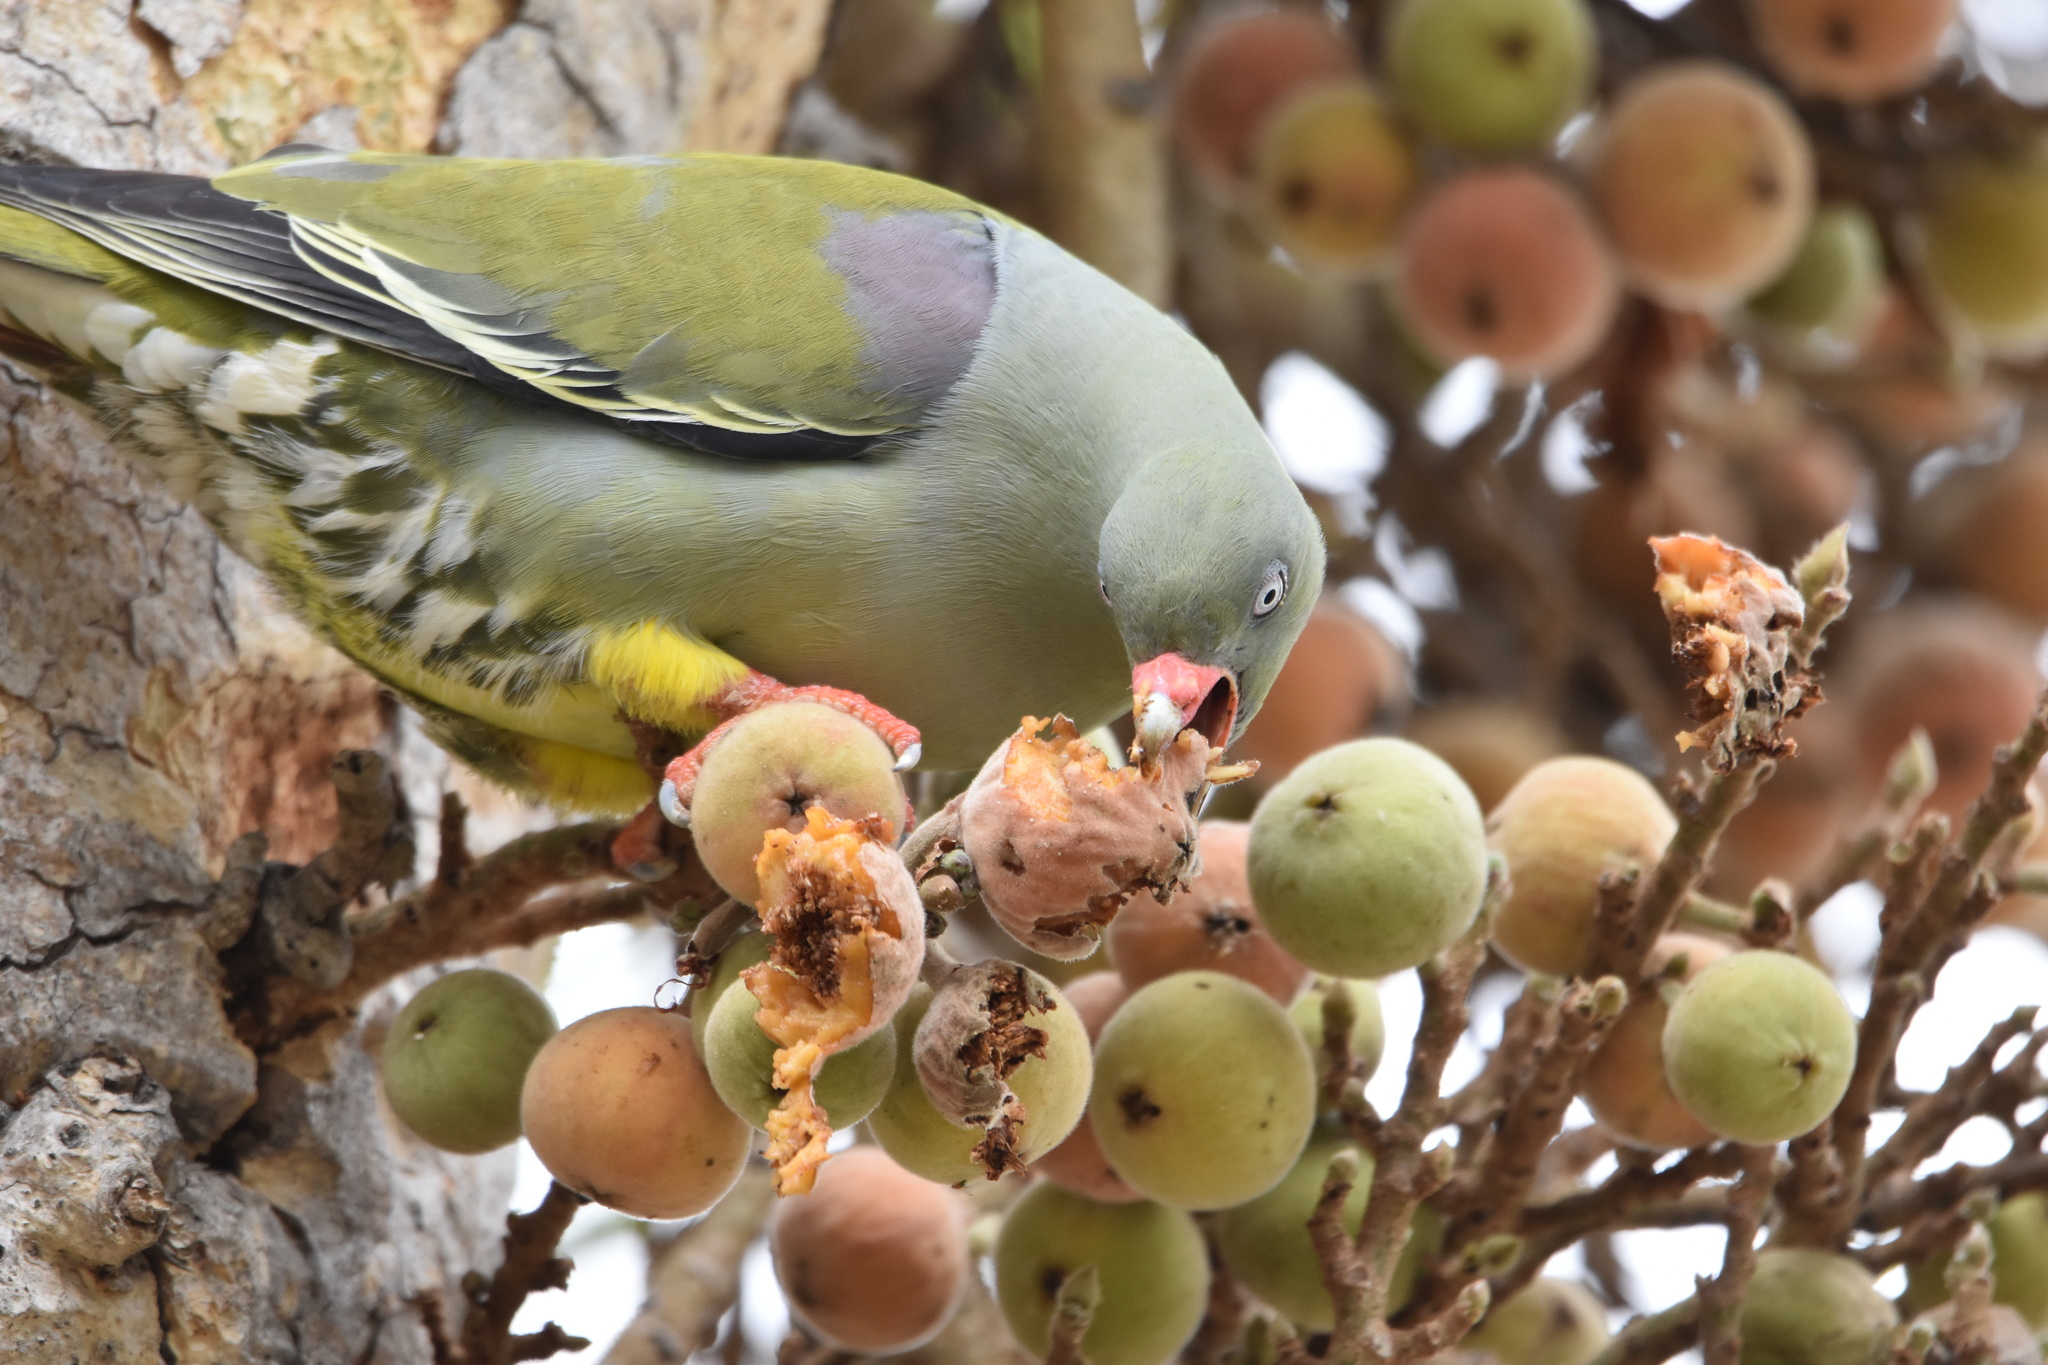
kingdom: Animalia
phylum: Chordata
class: Aves
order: Columbiformes
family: Columbidae
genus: Treron
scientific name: Treron calvus
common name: African green pigeon
